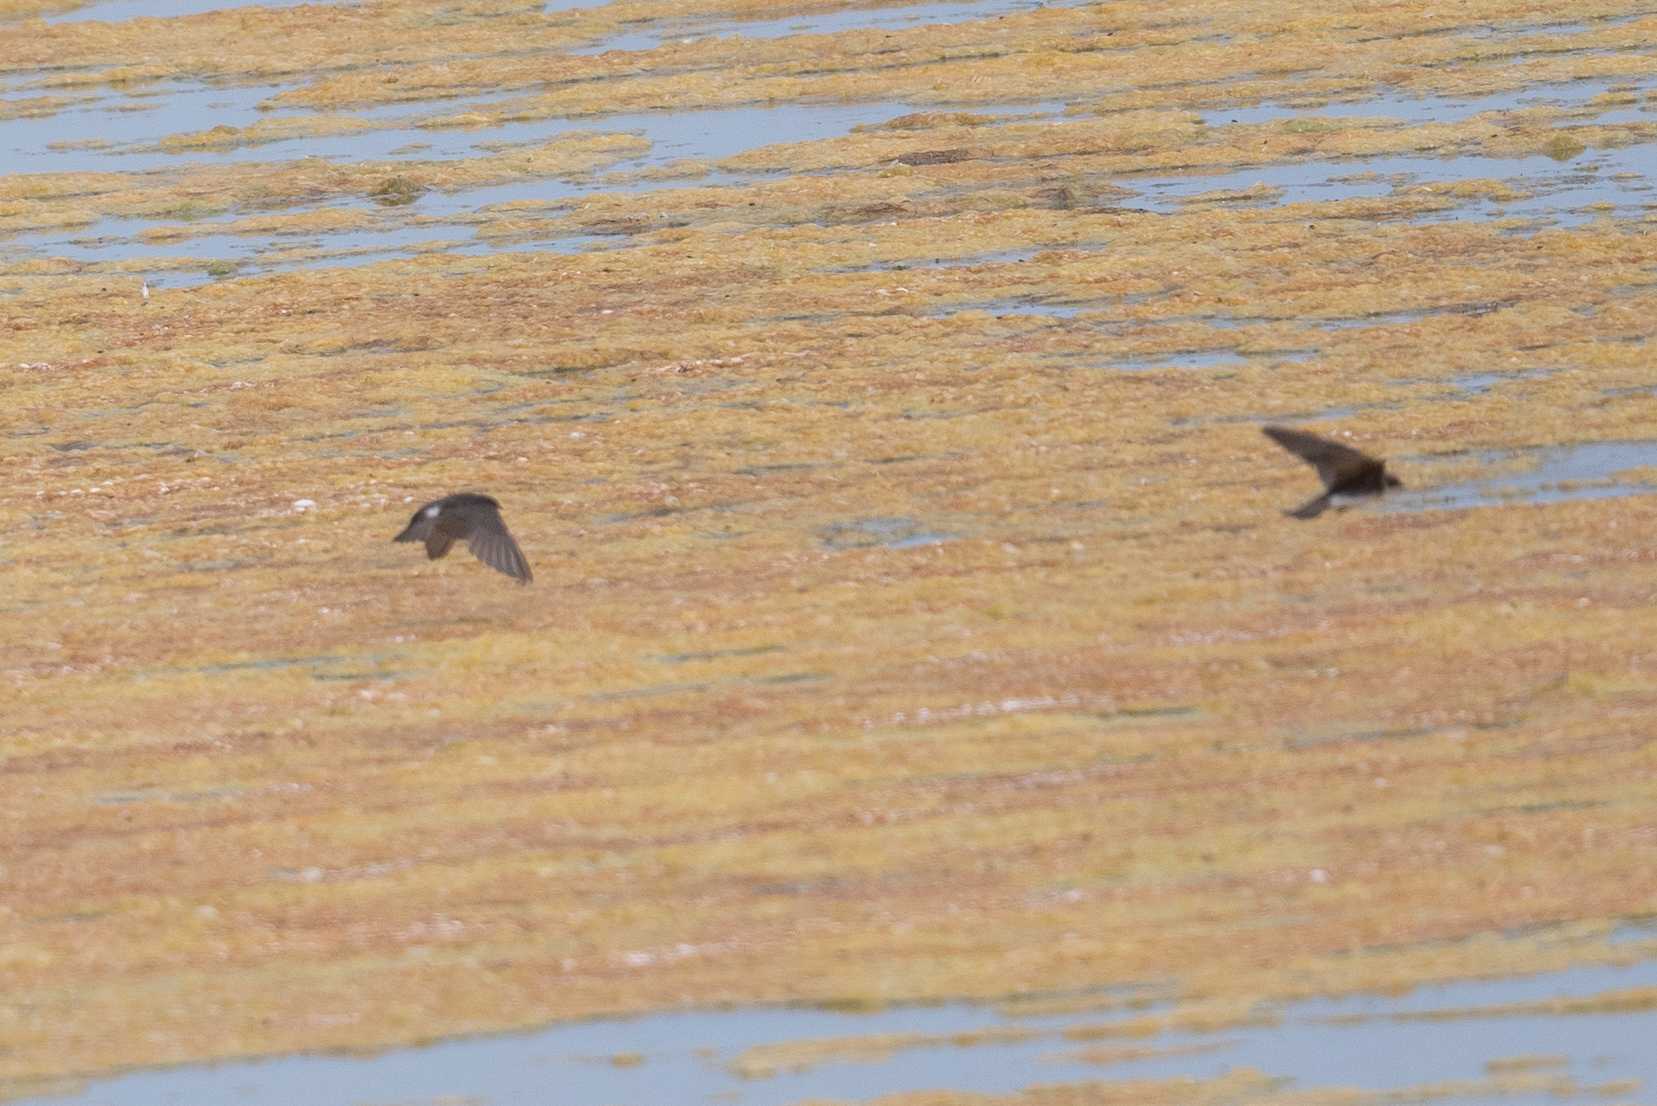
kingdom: Animalia
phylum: Chordata
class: Aves
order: Passeriformes
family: Hirundinidae
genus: Tachycineta
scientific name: Tachycineta bicolor
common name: Tree swallow
